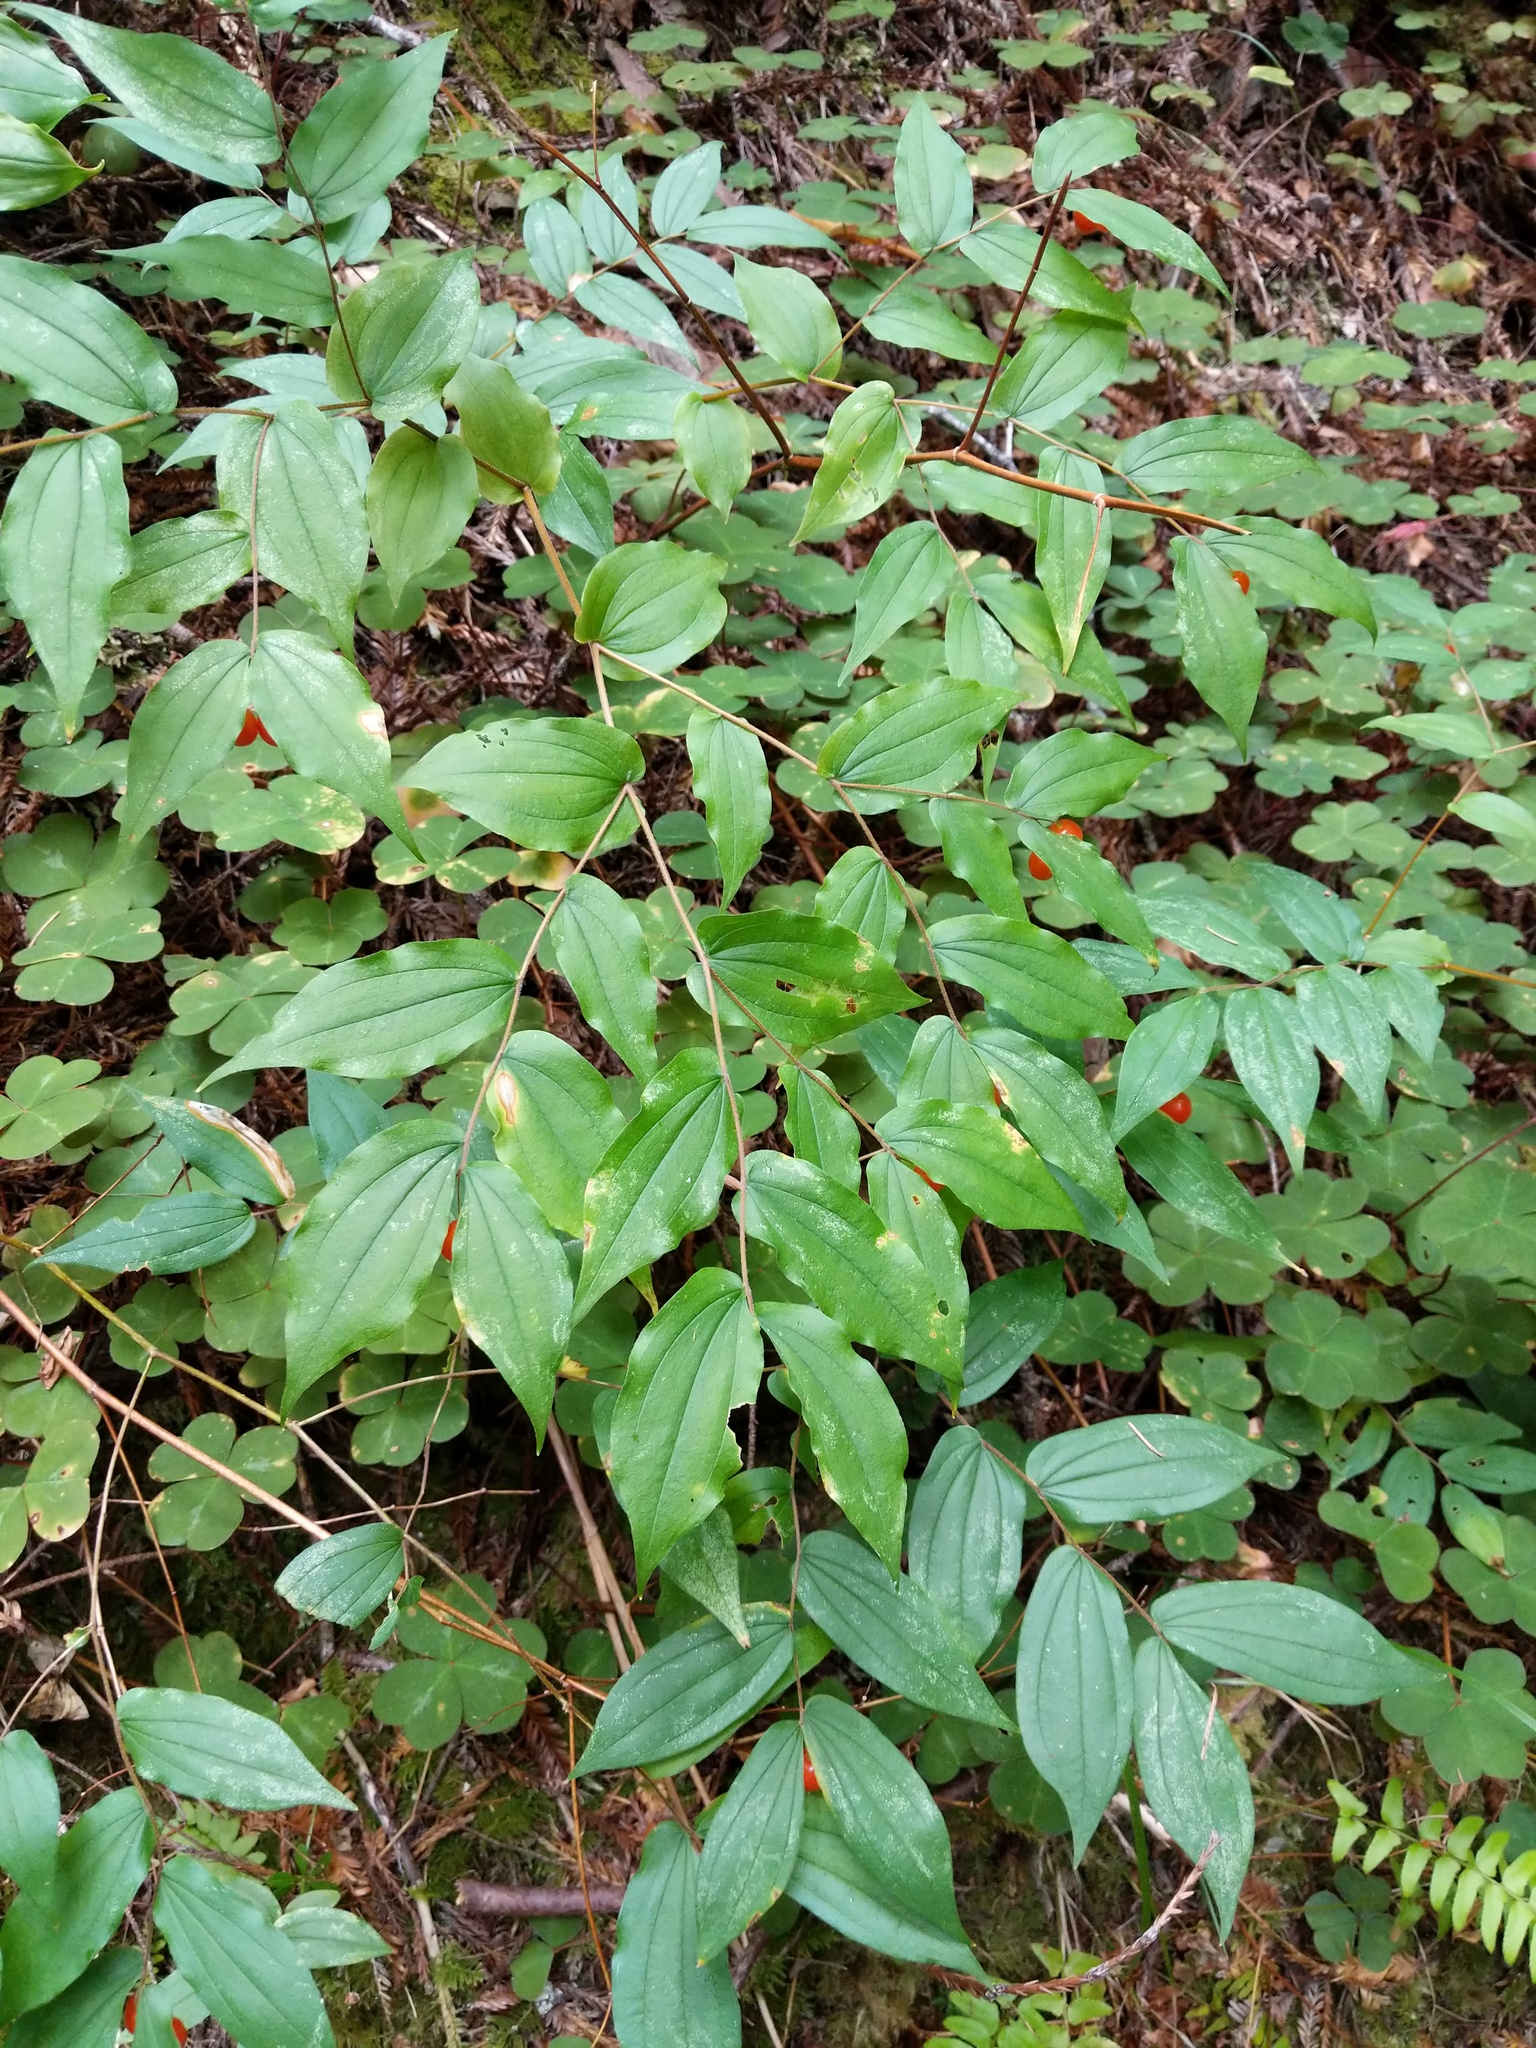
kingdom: Plantae
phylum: Tracheophyta
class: Liliopsida
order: Liliales
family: Liliaceae
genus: Prosartes
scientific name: Prosartes hookeri
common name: Fairy-bells
